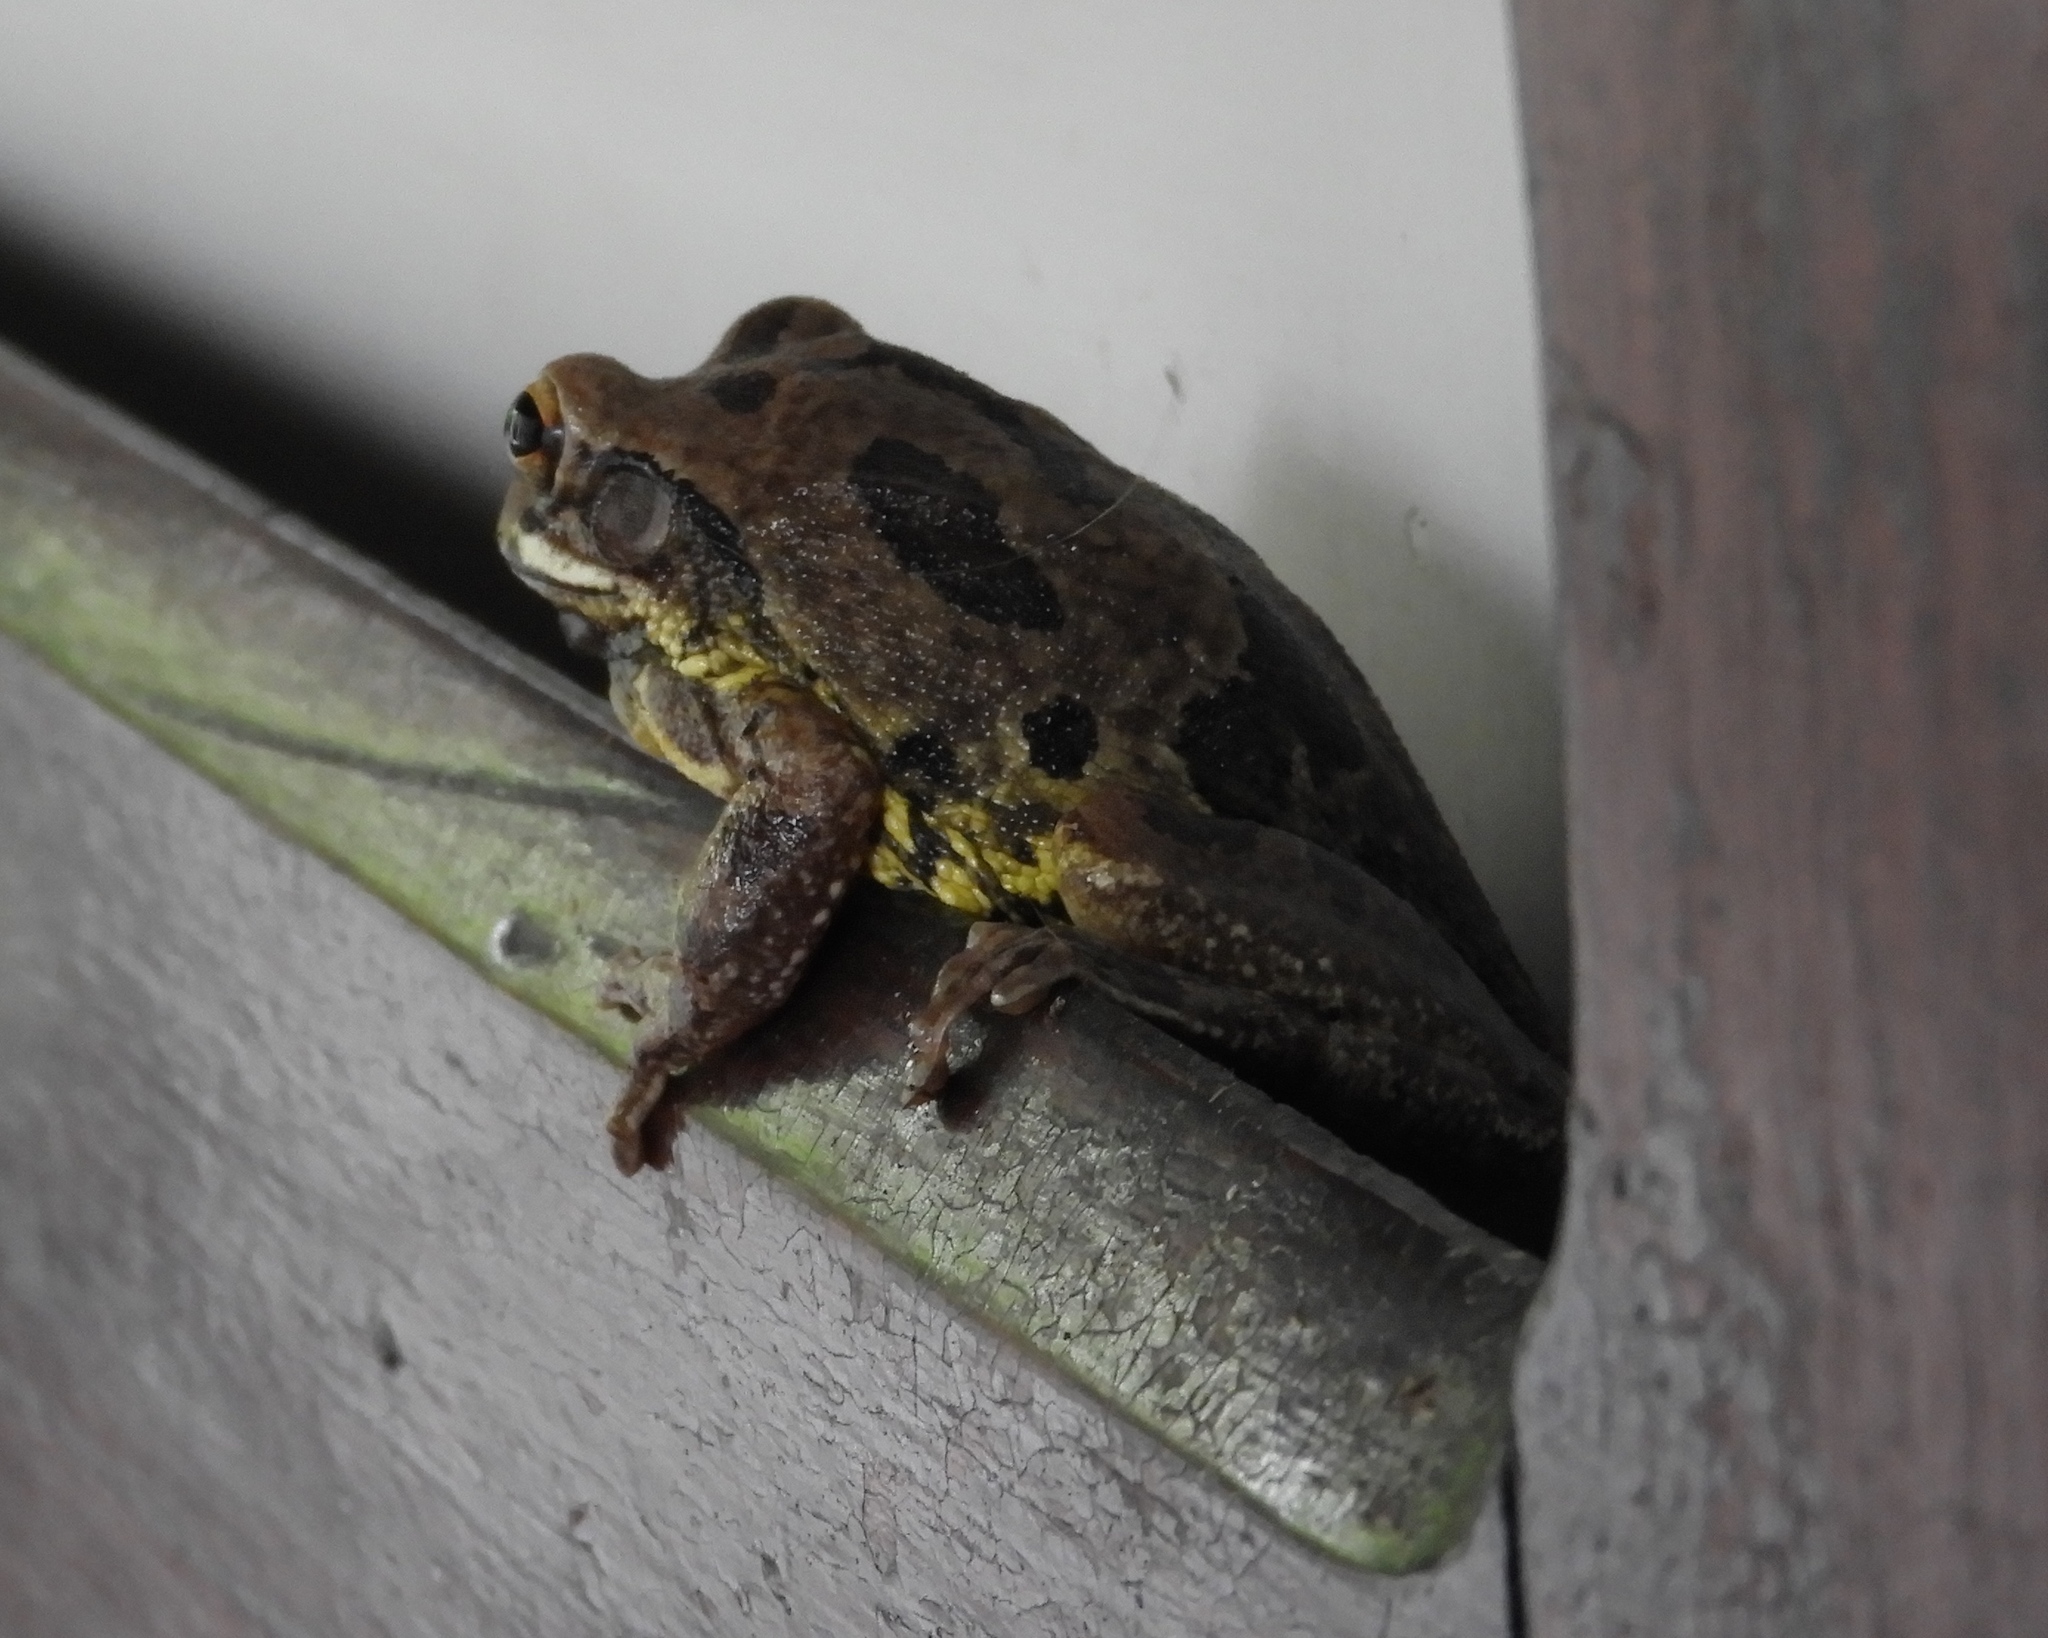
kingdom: Animalia
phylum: Chordata
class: Amphibia
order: Anura
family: Hylidae
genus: Smilisca
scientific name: Smilisca baudinii
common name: Mexican smilisca
